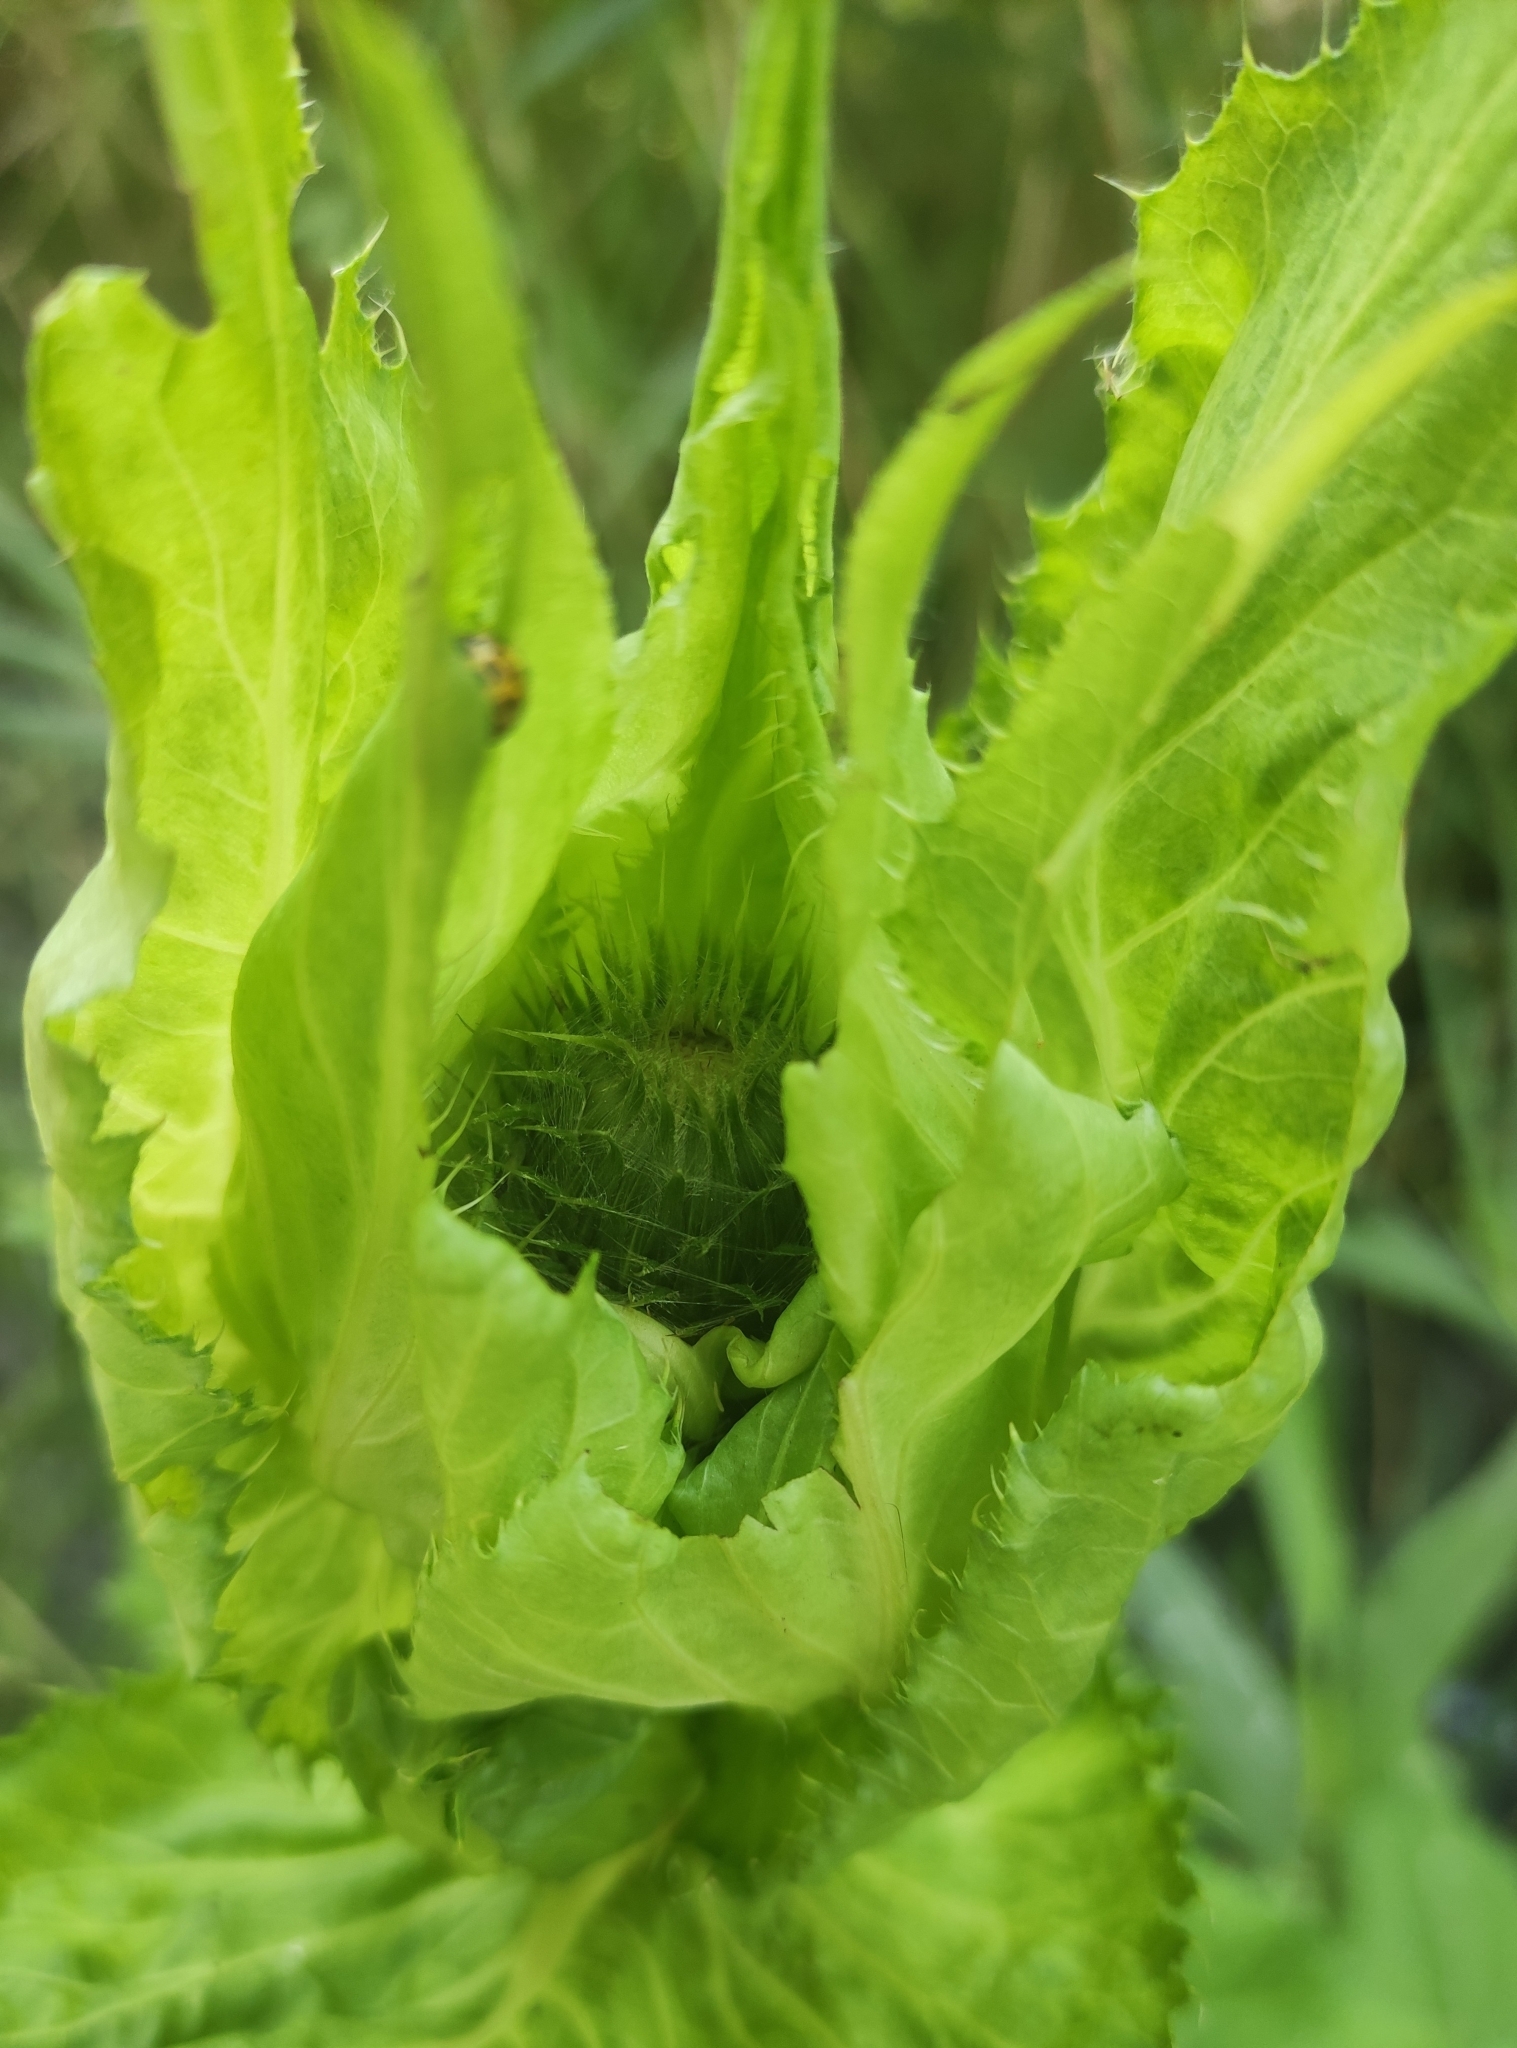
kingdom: Plantae
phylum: Tracheophyta
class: Magnoliopsida
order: Asterales
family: Asteraceae
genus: Cirsium
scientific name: Cirsium oleraceum
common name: Cabbage thistle
